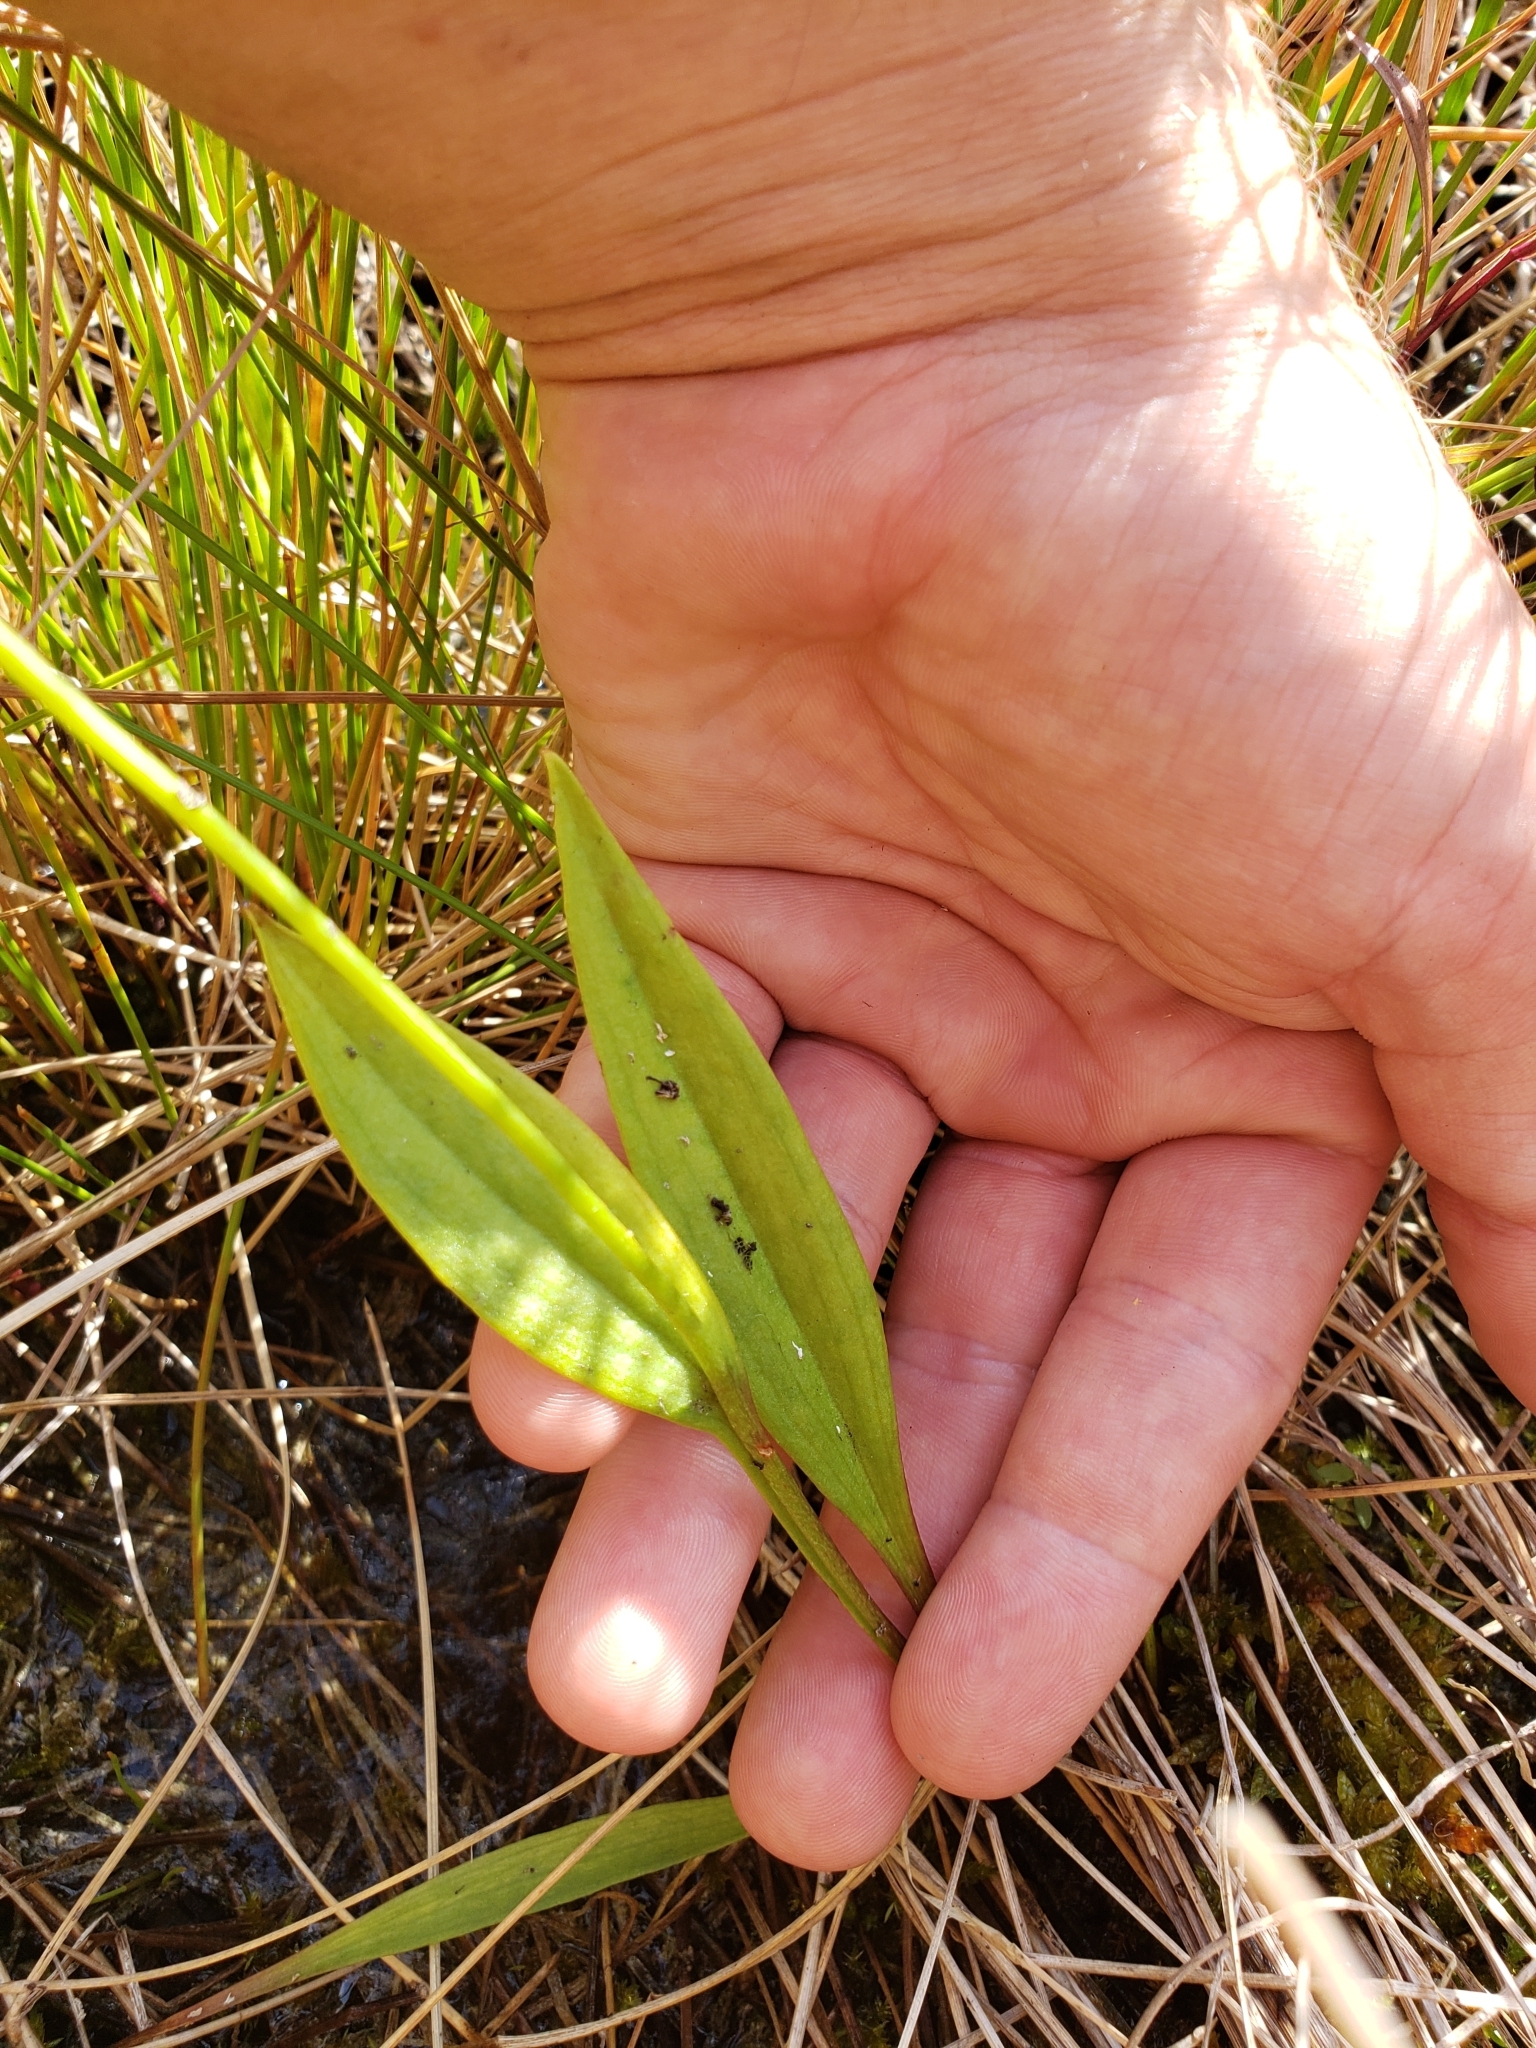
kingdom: Plantae
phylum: Tracheophyta
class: Liliopsida
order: Asparagales
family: Orchidaceae
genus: Pogonia
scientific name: Pogonia ophioglossoides
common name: Rose pogonia
